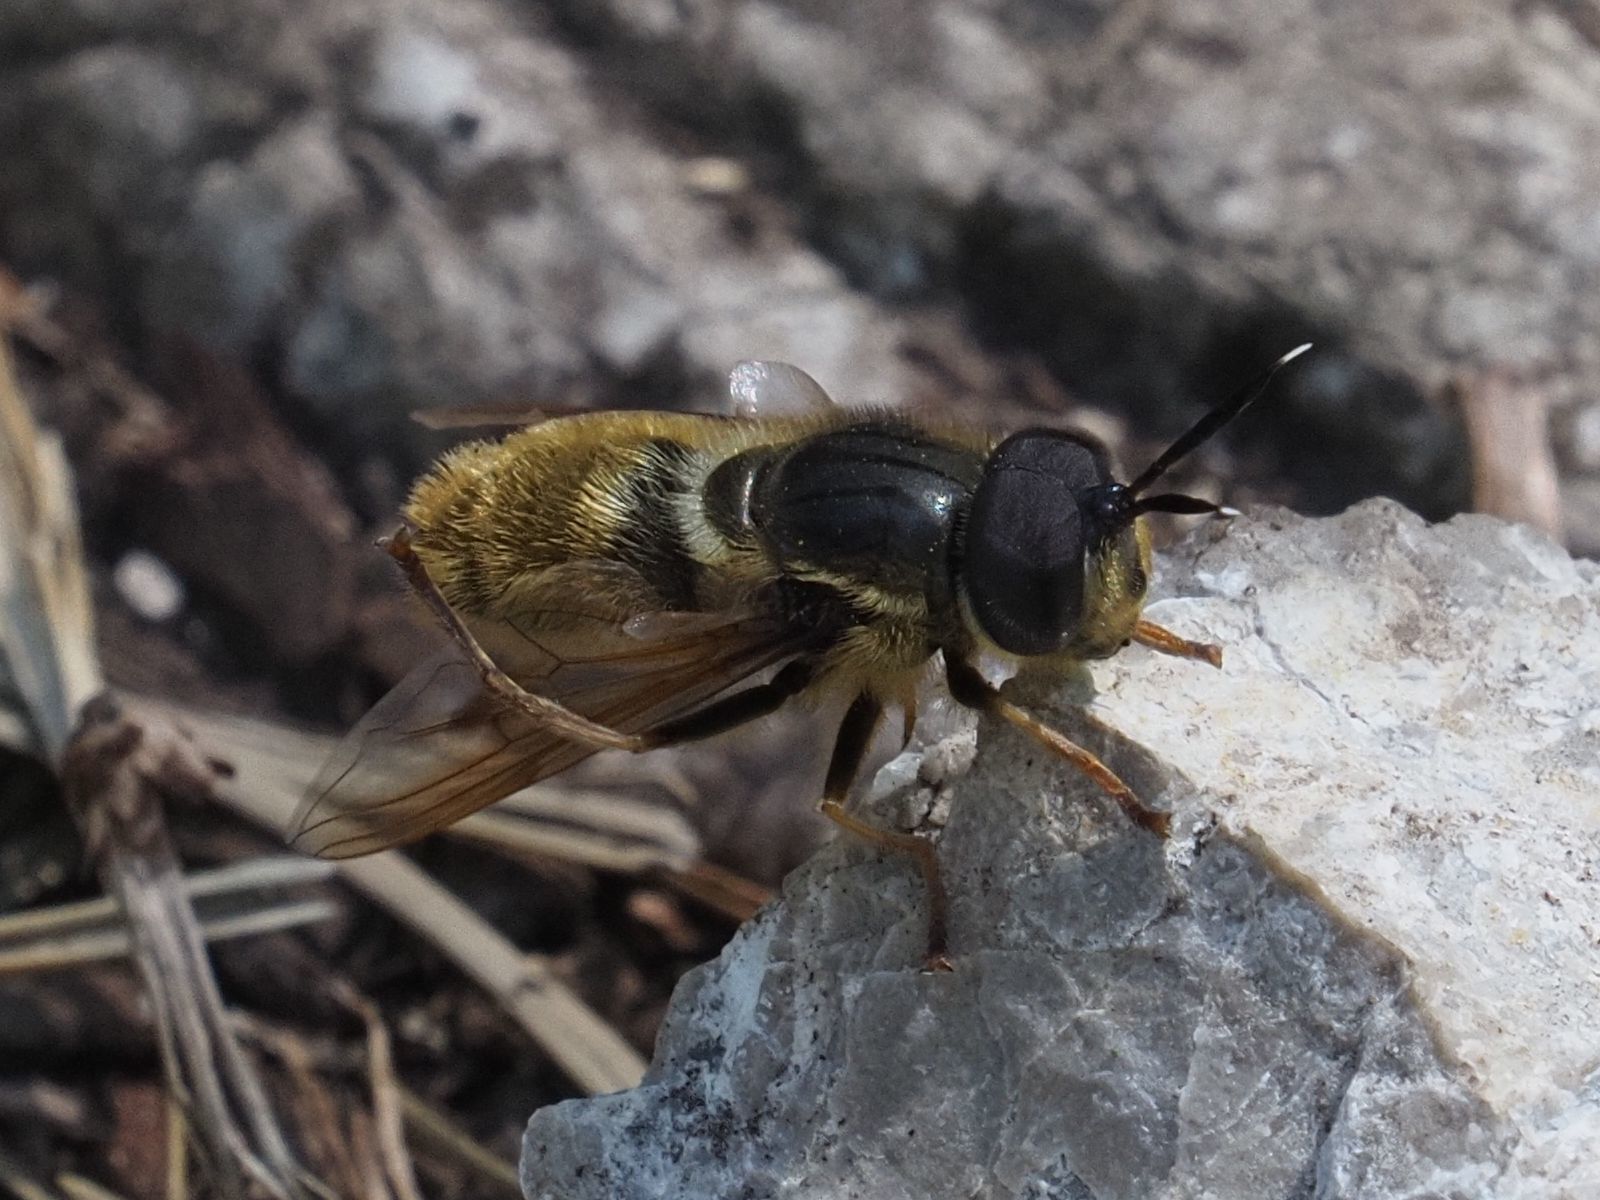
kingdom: Animalia
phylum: Arthropoda
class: Insecta
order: Diptera
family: Syrphidae
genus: Callicera
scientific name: Callicera aenea
